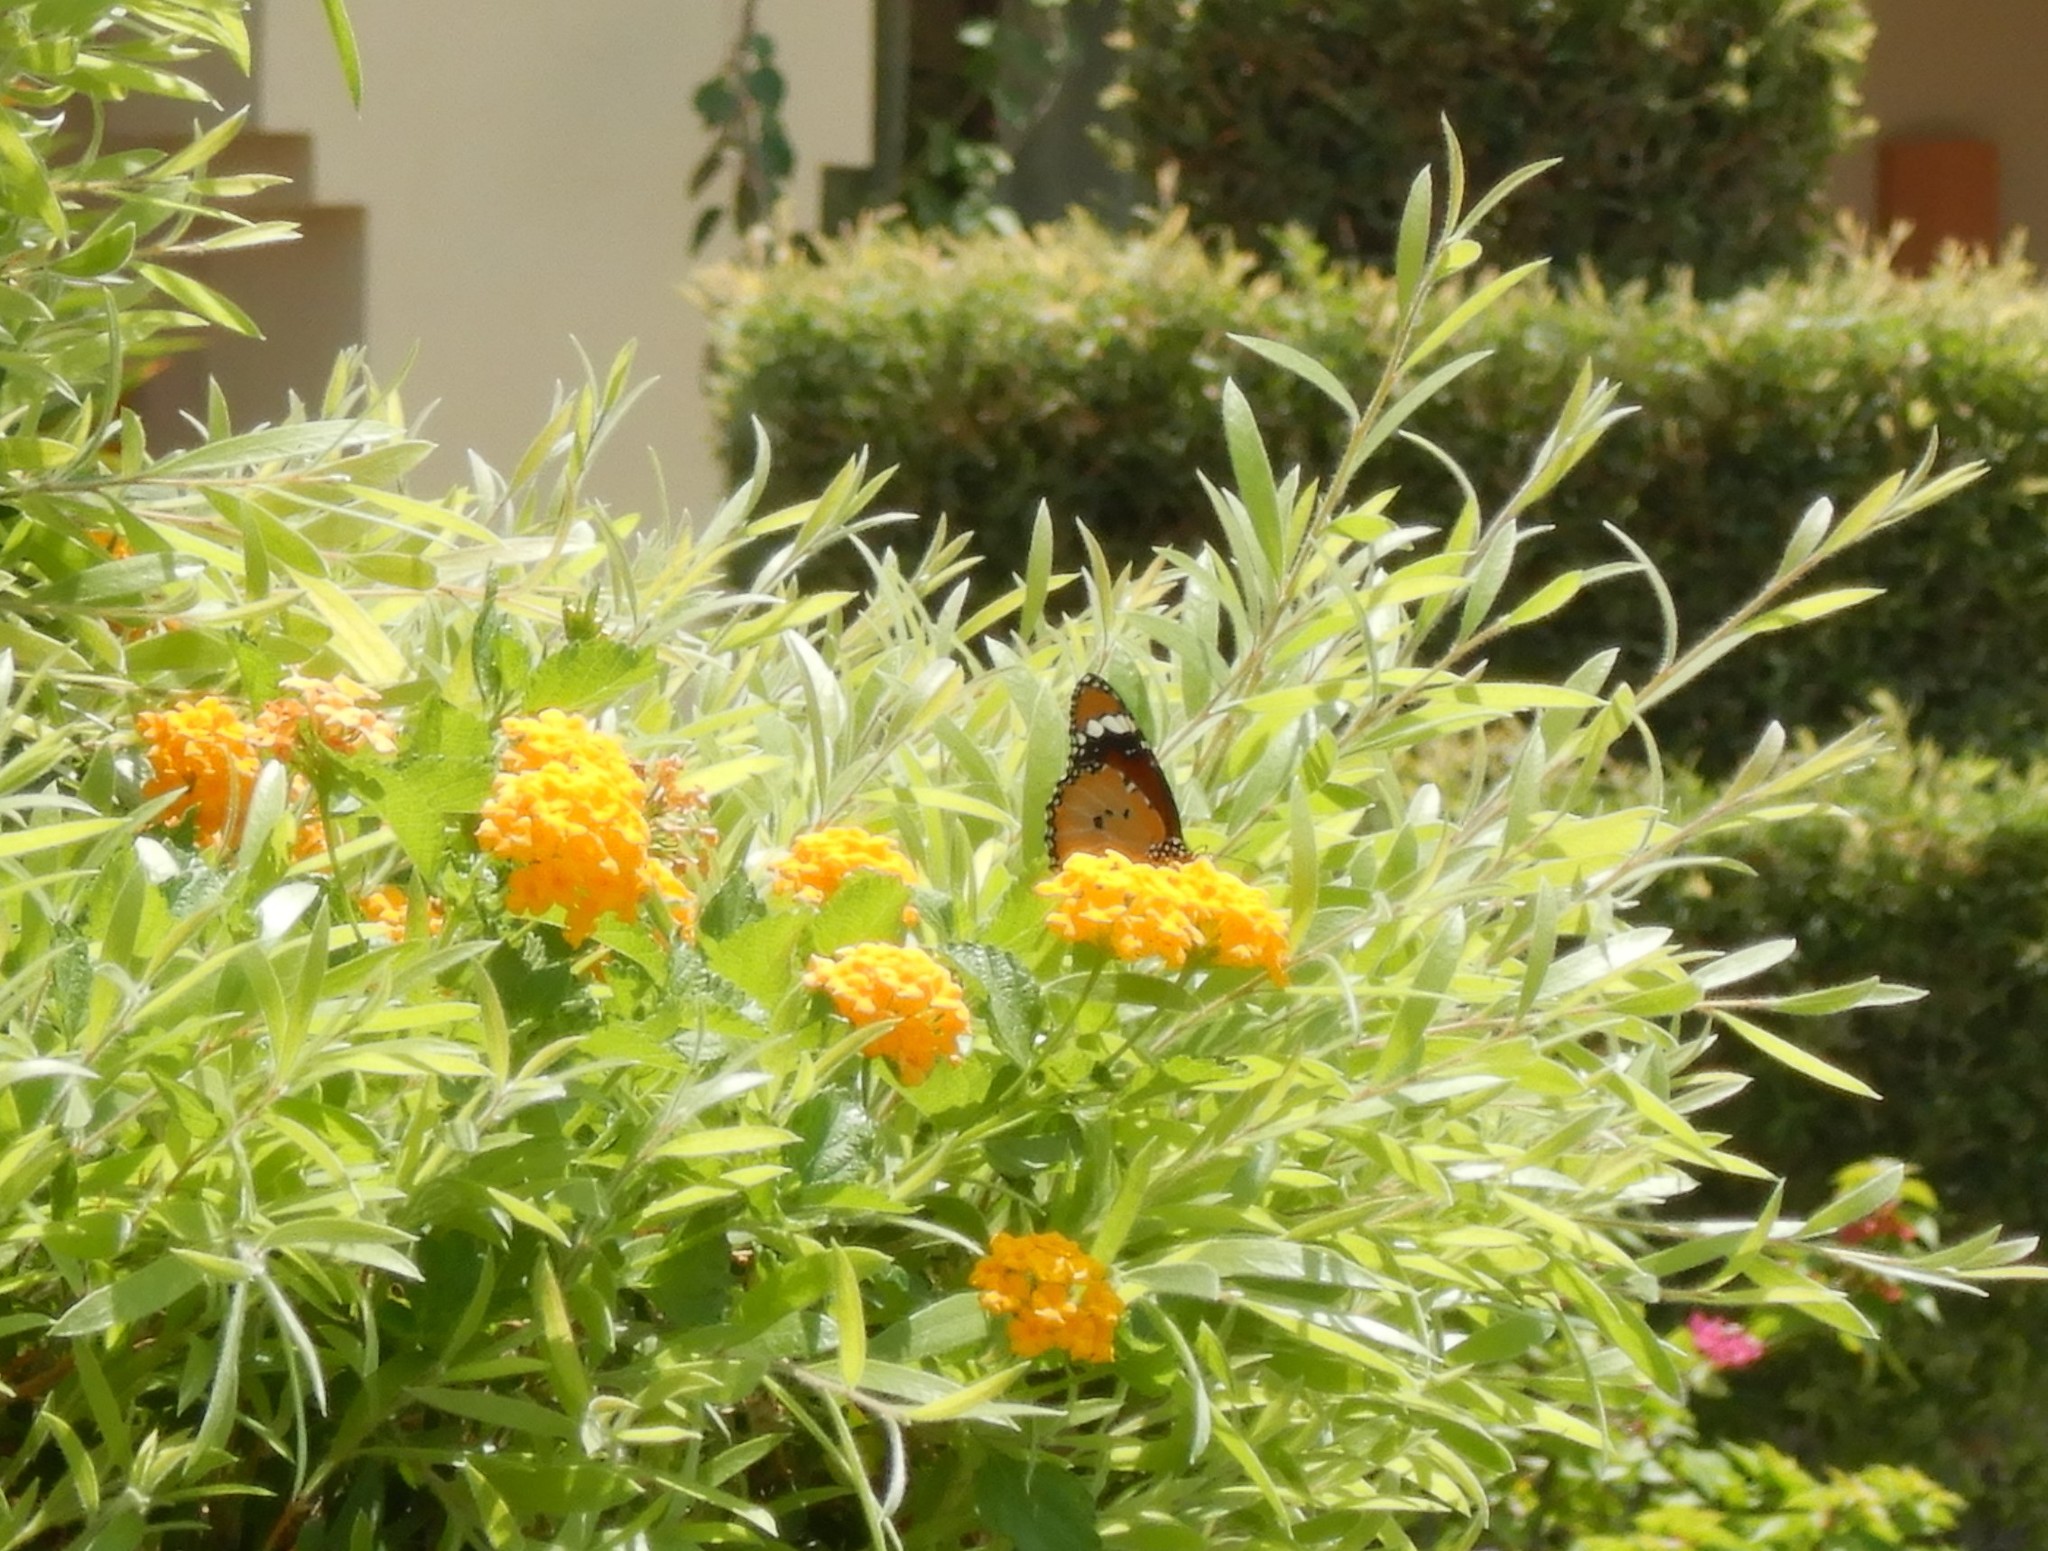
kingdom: Animalia
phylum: Arthropoda
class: Insecta
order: Lepidoptera
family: Nymphalidae
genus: Danaus
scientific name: Danaus chrysippus
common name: Plain tiger
